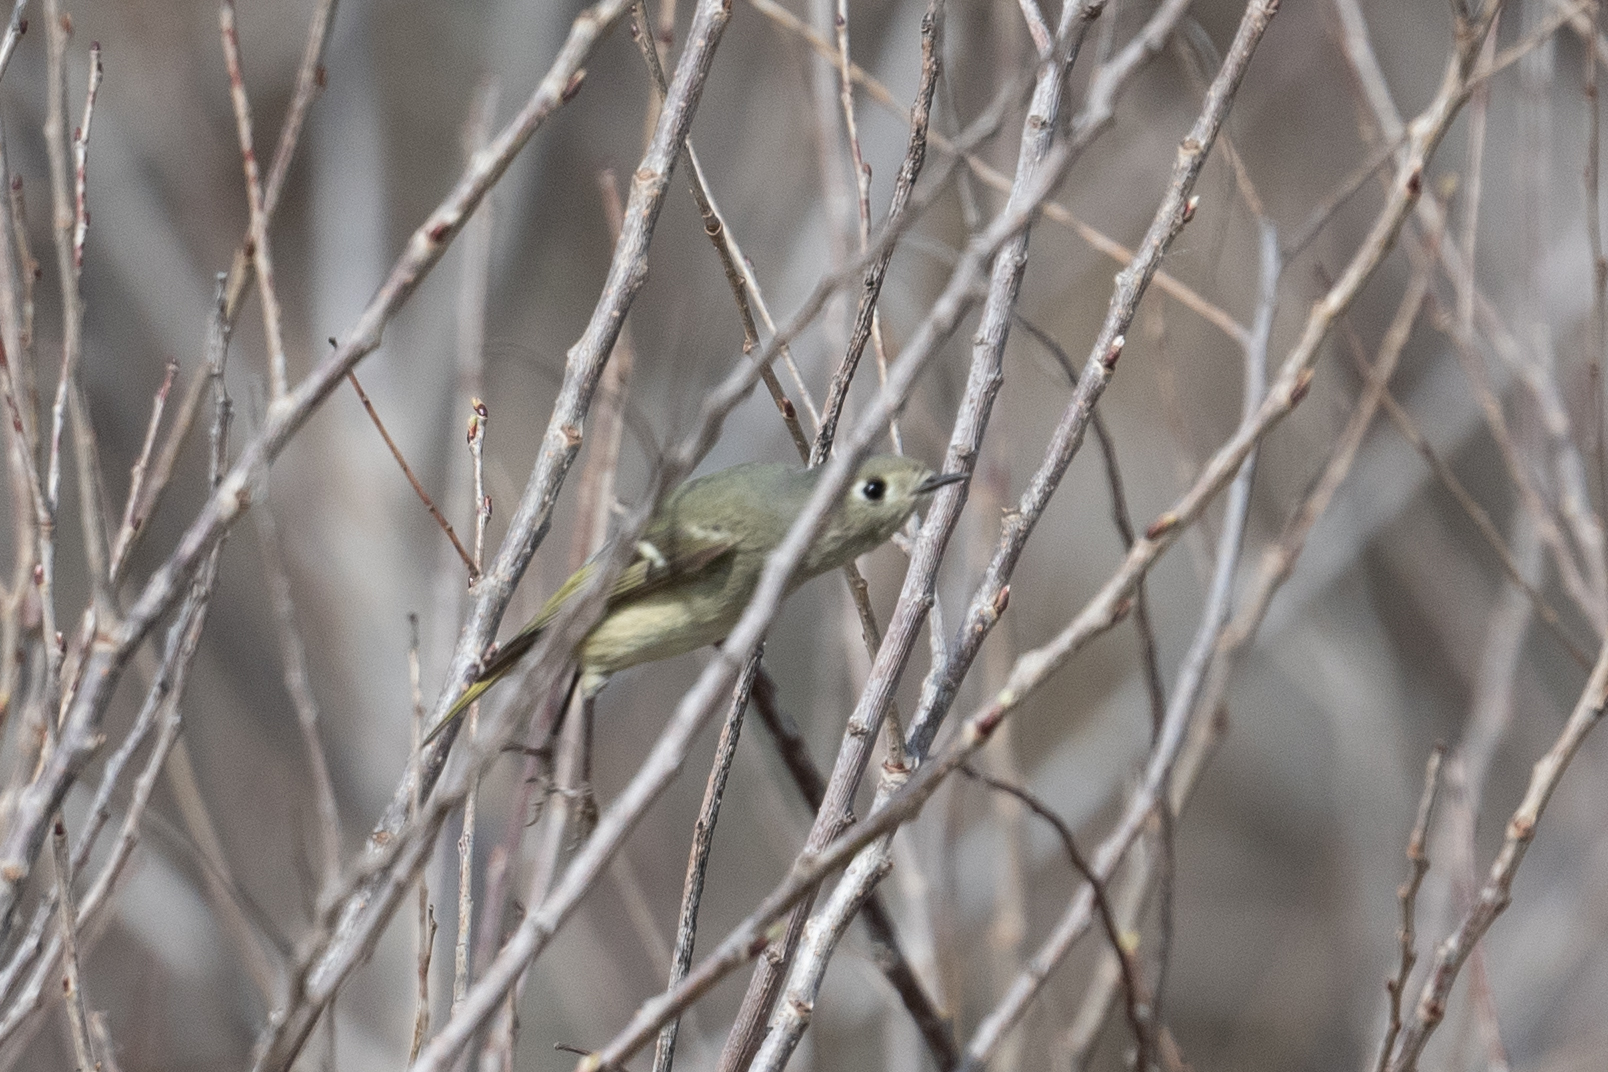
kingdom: Animalia
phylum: Chordata
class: Aves
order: Passeriformes
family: Regulidae
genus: Regulus
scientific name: Regulus calendula
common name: Ruby-crowned kinglet
